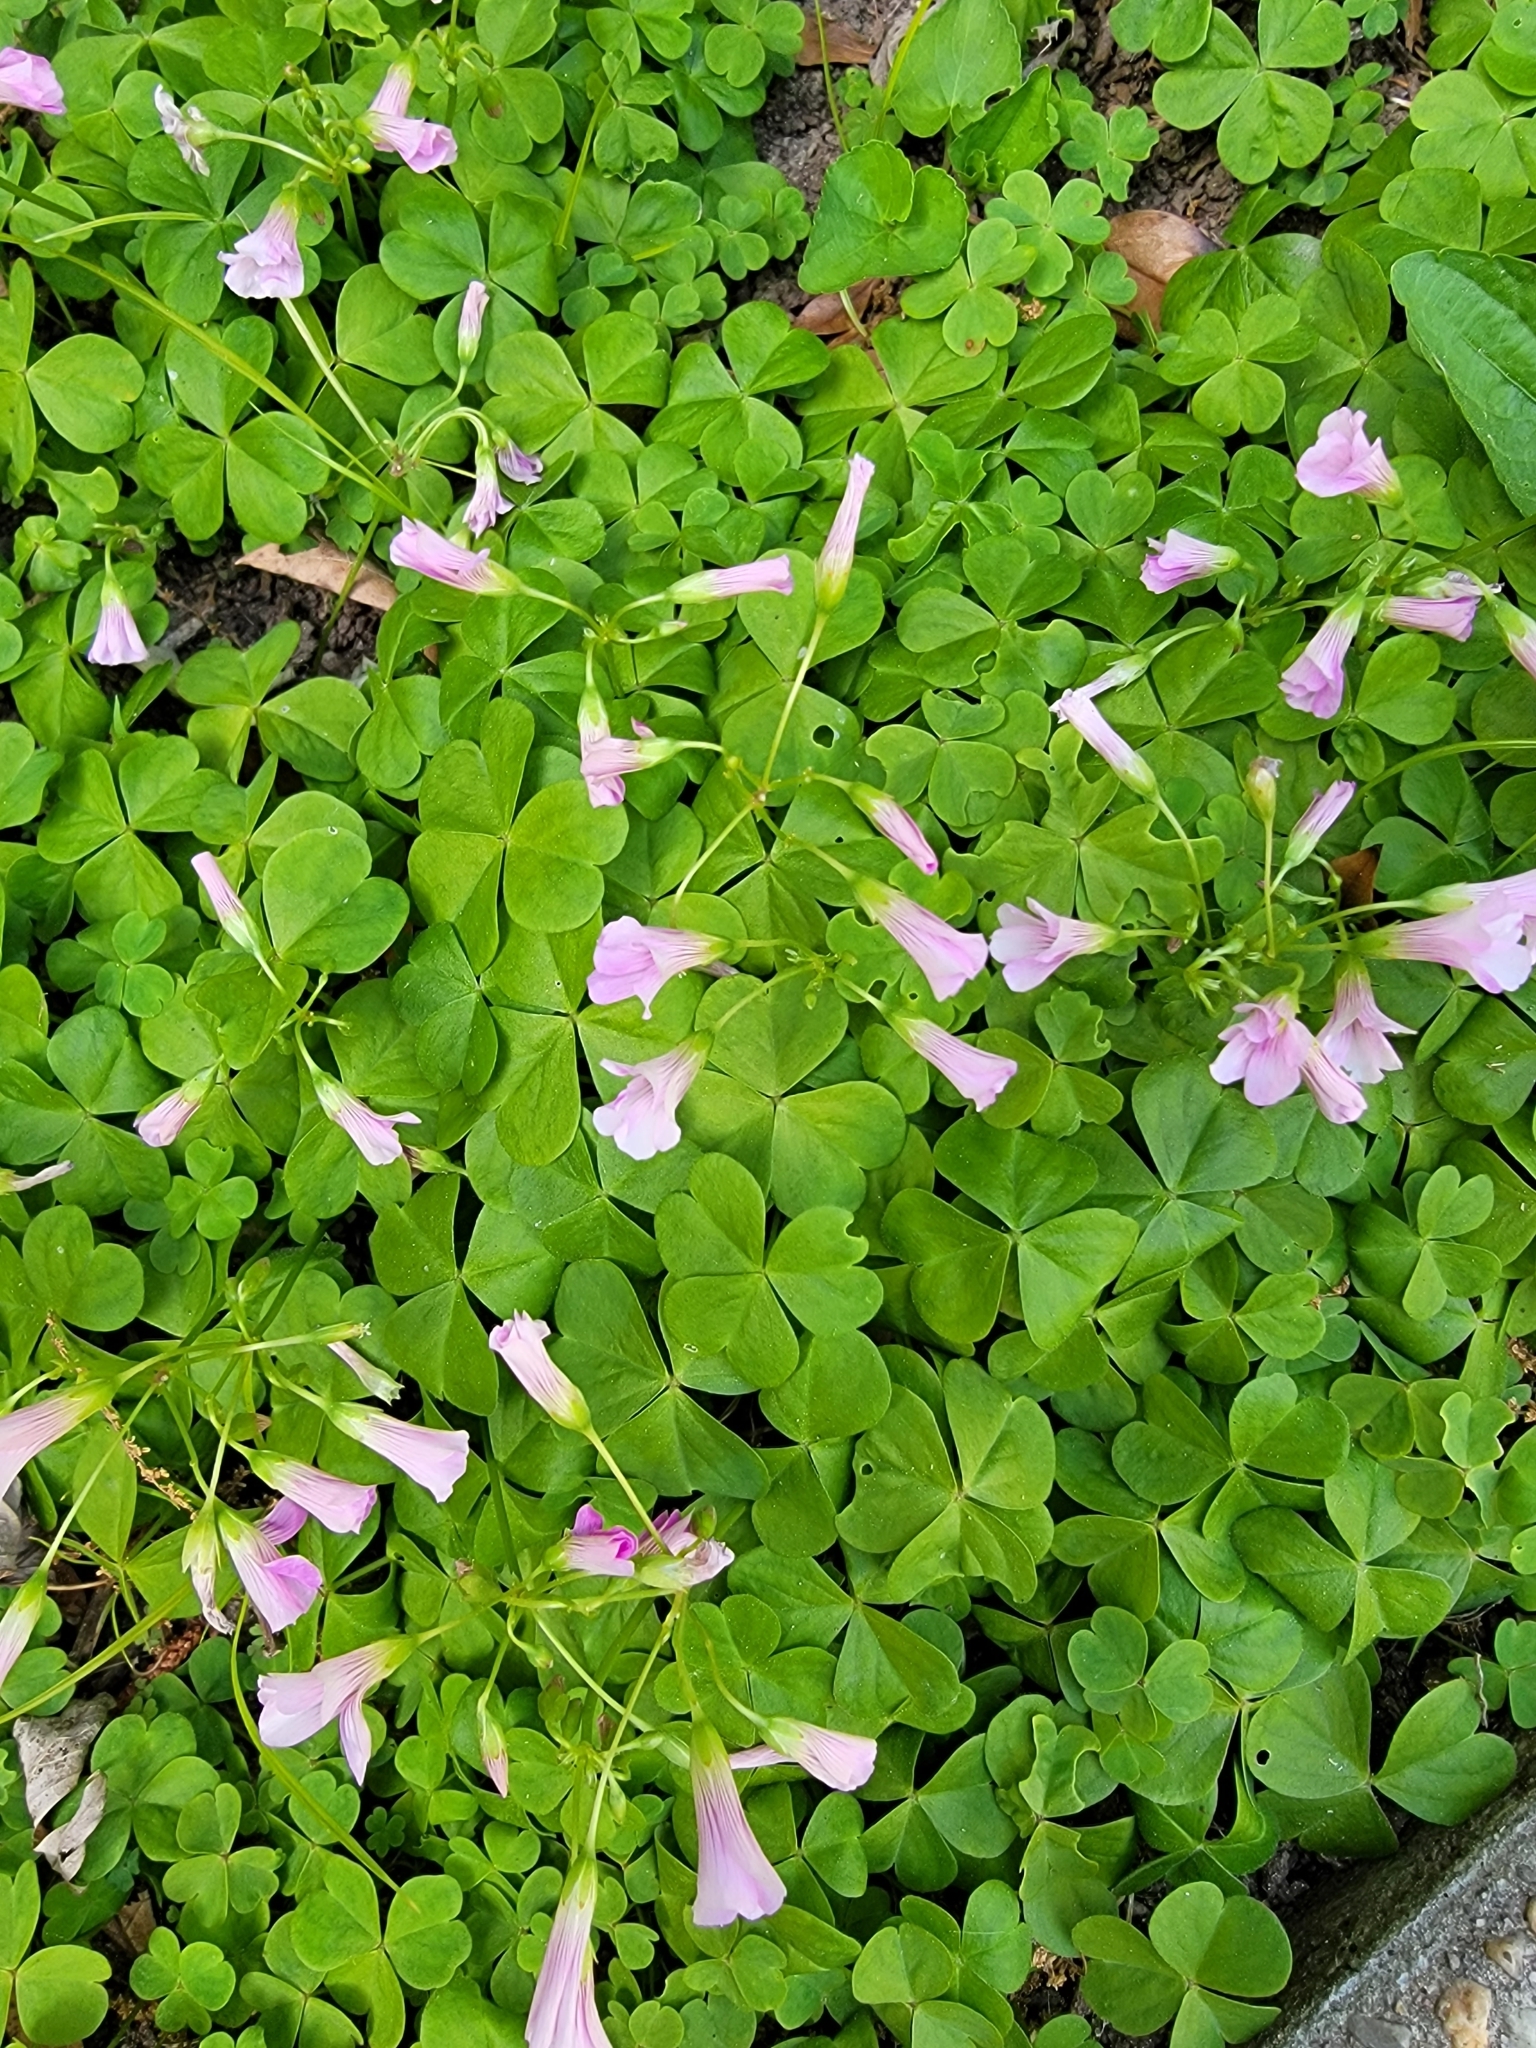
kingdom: Plantae
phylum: Tracheophyta
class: Magnoliopsida
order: Oxalidales
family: Oxalidaceae
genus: Oxalis
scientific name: Oxalis debilis
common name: Large-flowered pink-sorrel
